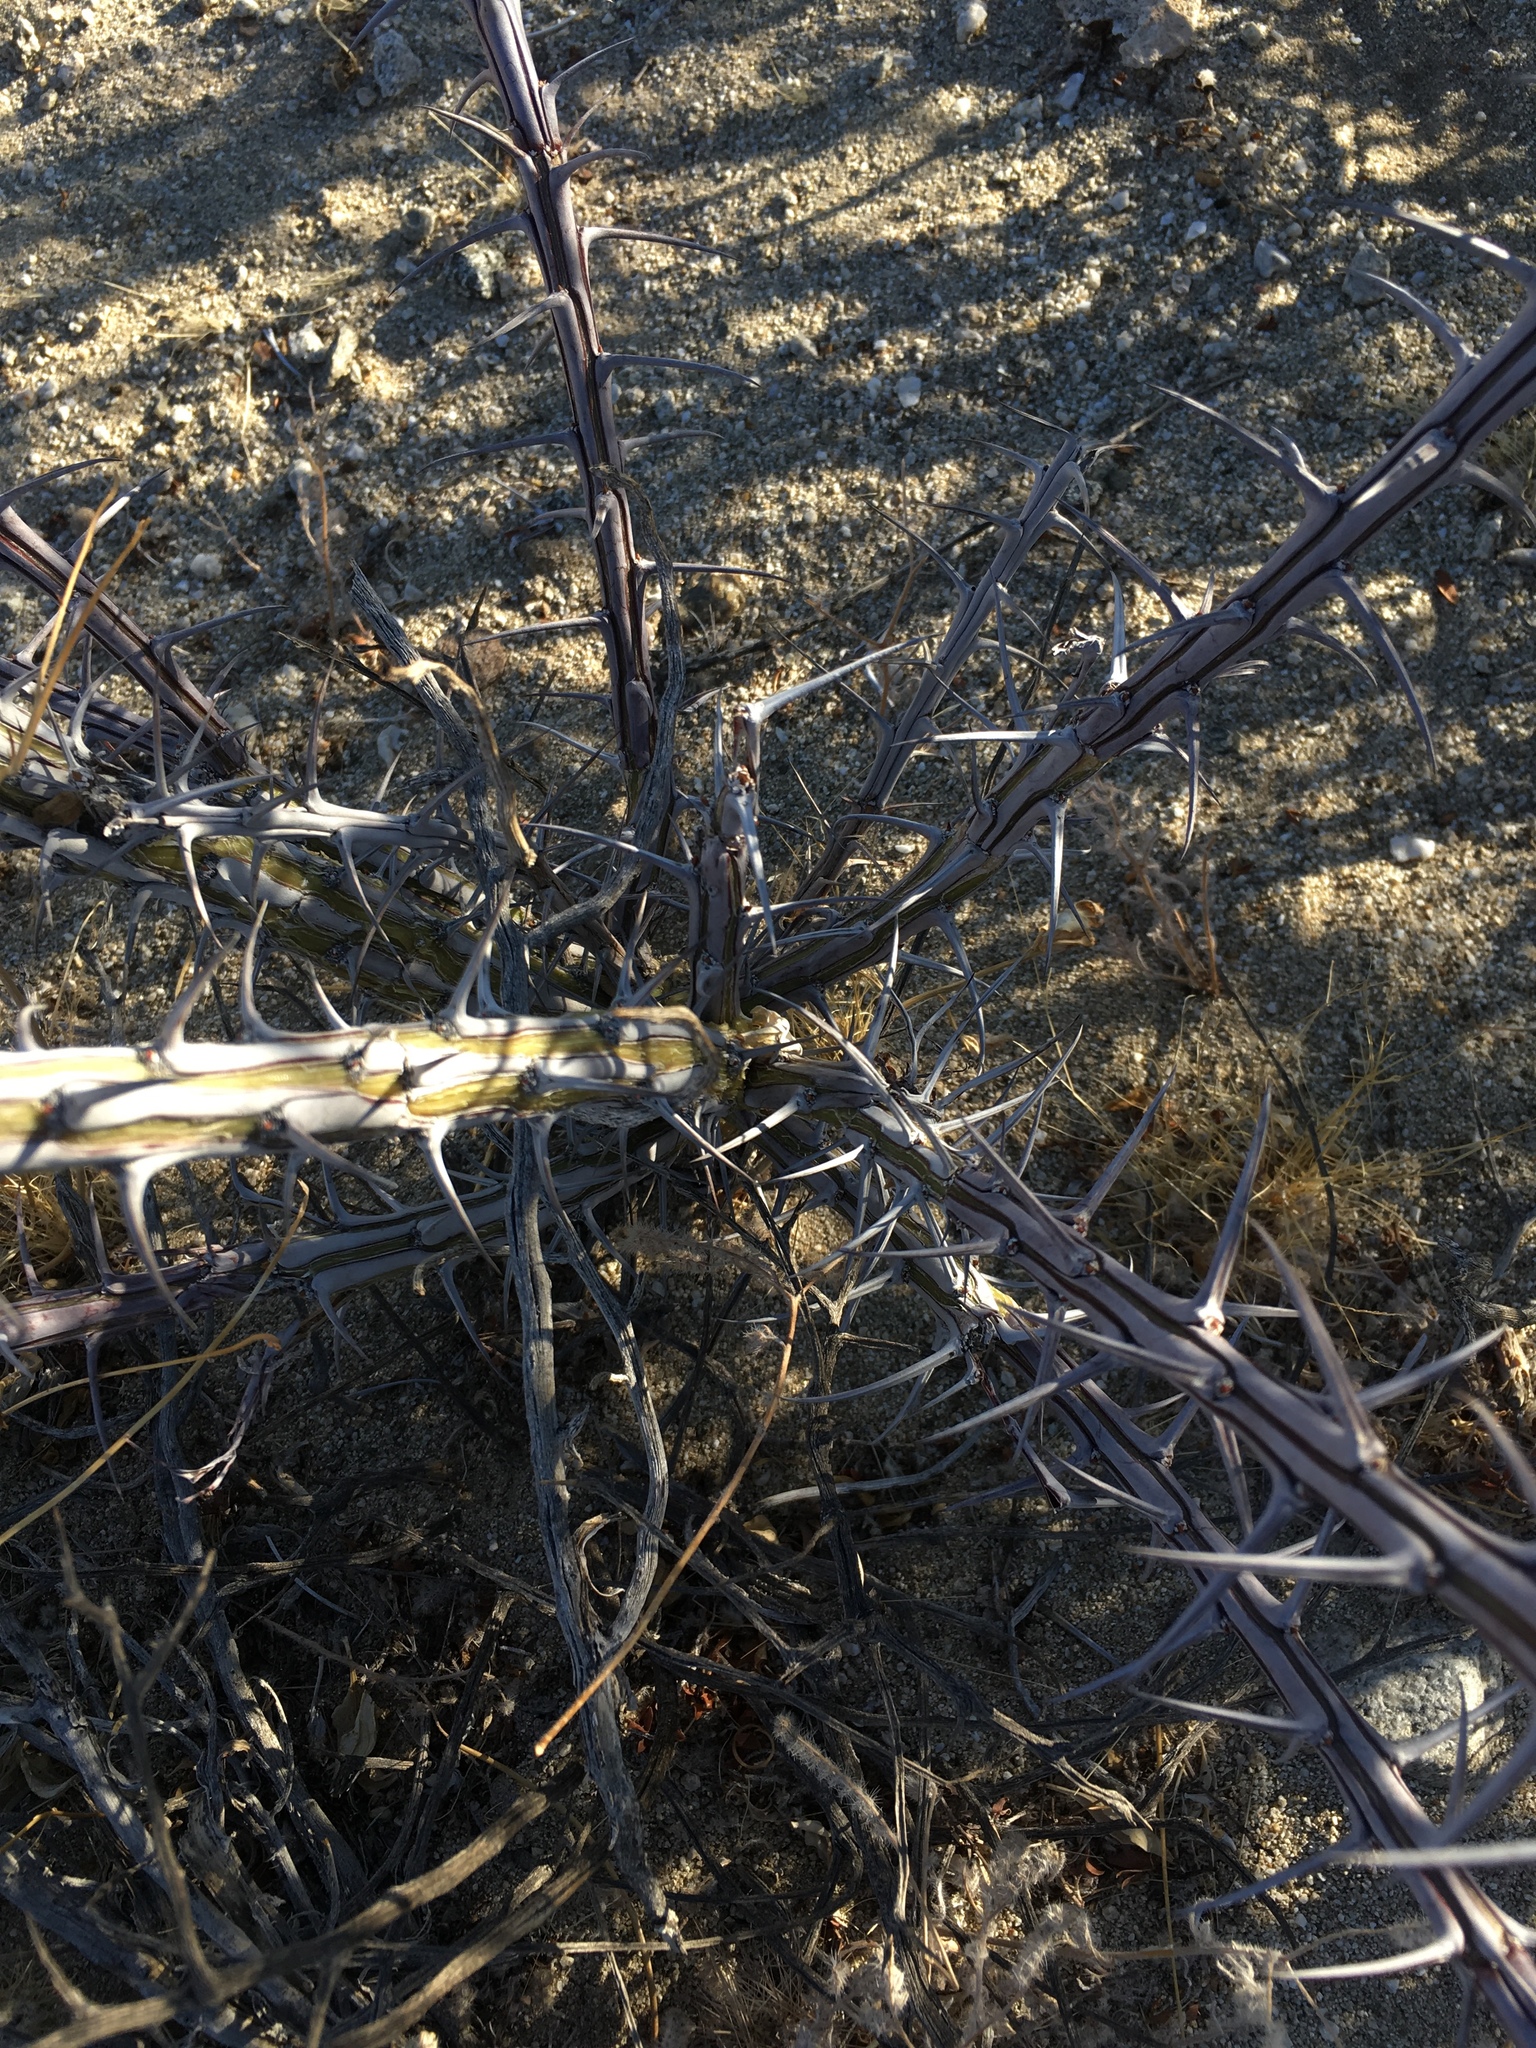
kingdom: Plantae
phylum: Tracheophyta
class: Magnoliopsida
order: Ericales
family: Fouquieriaceae
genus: Fouquieria
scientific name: Fouquieria splendens
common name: Vine-cactus
